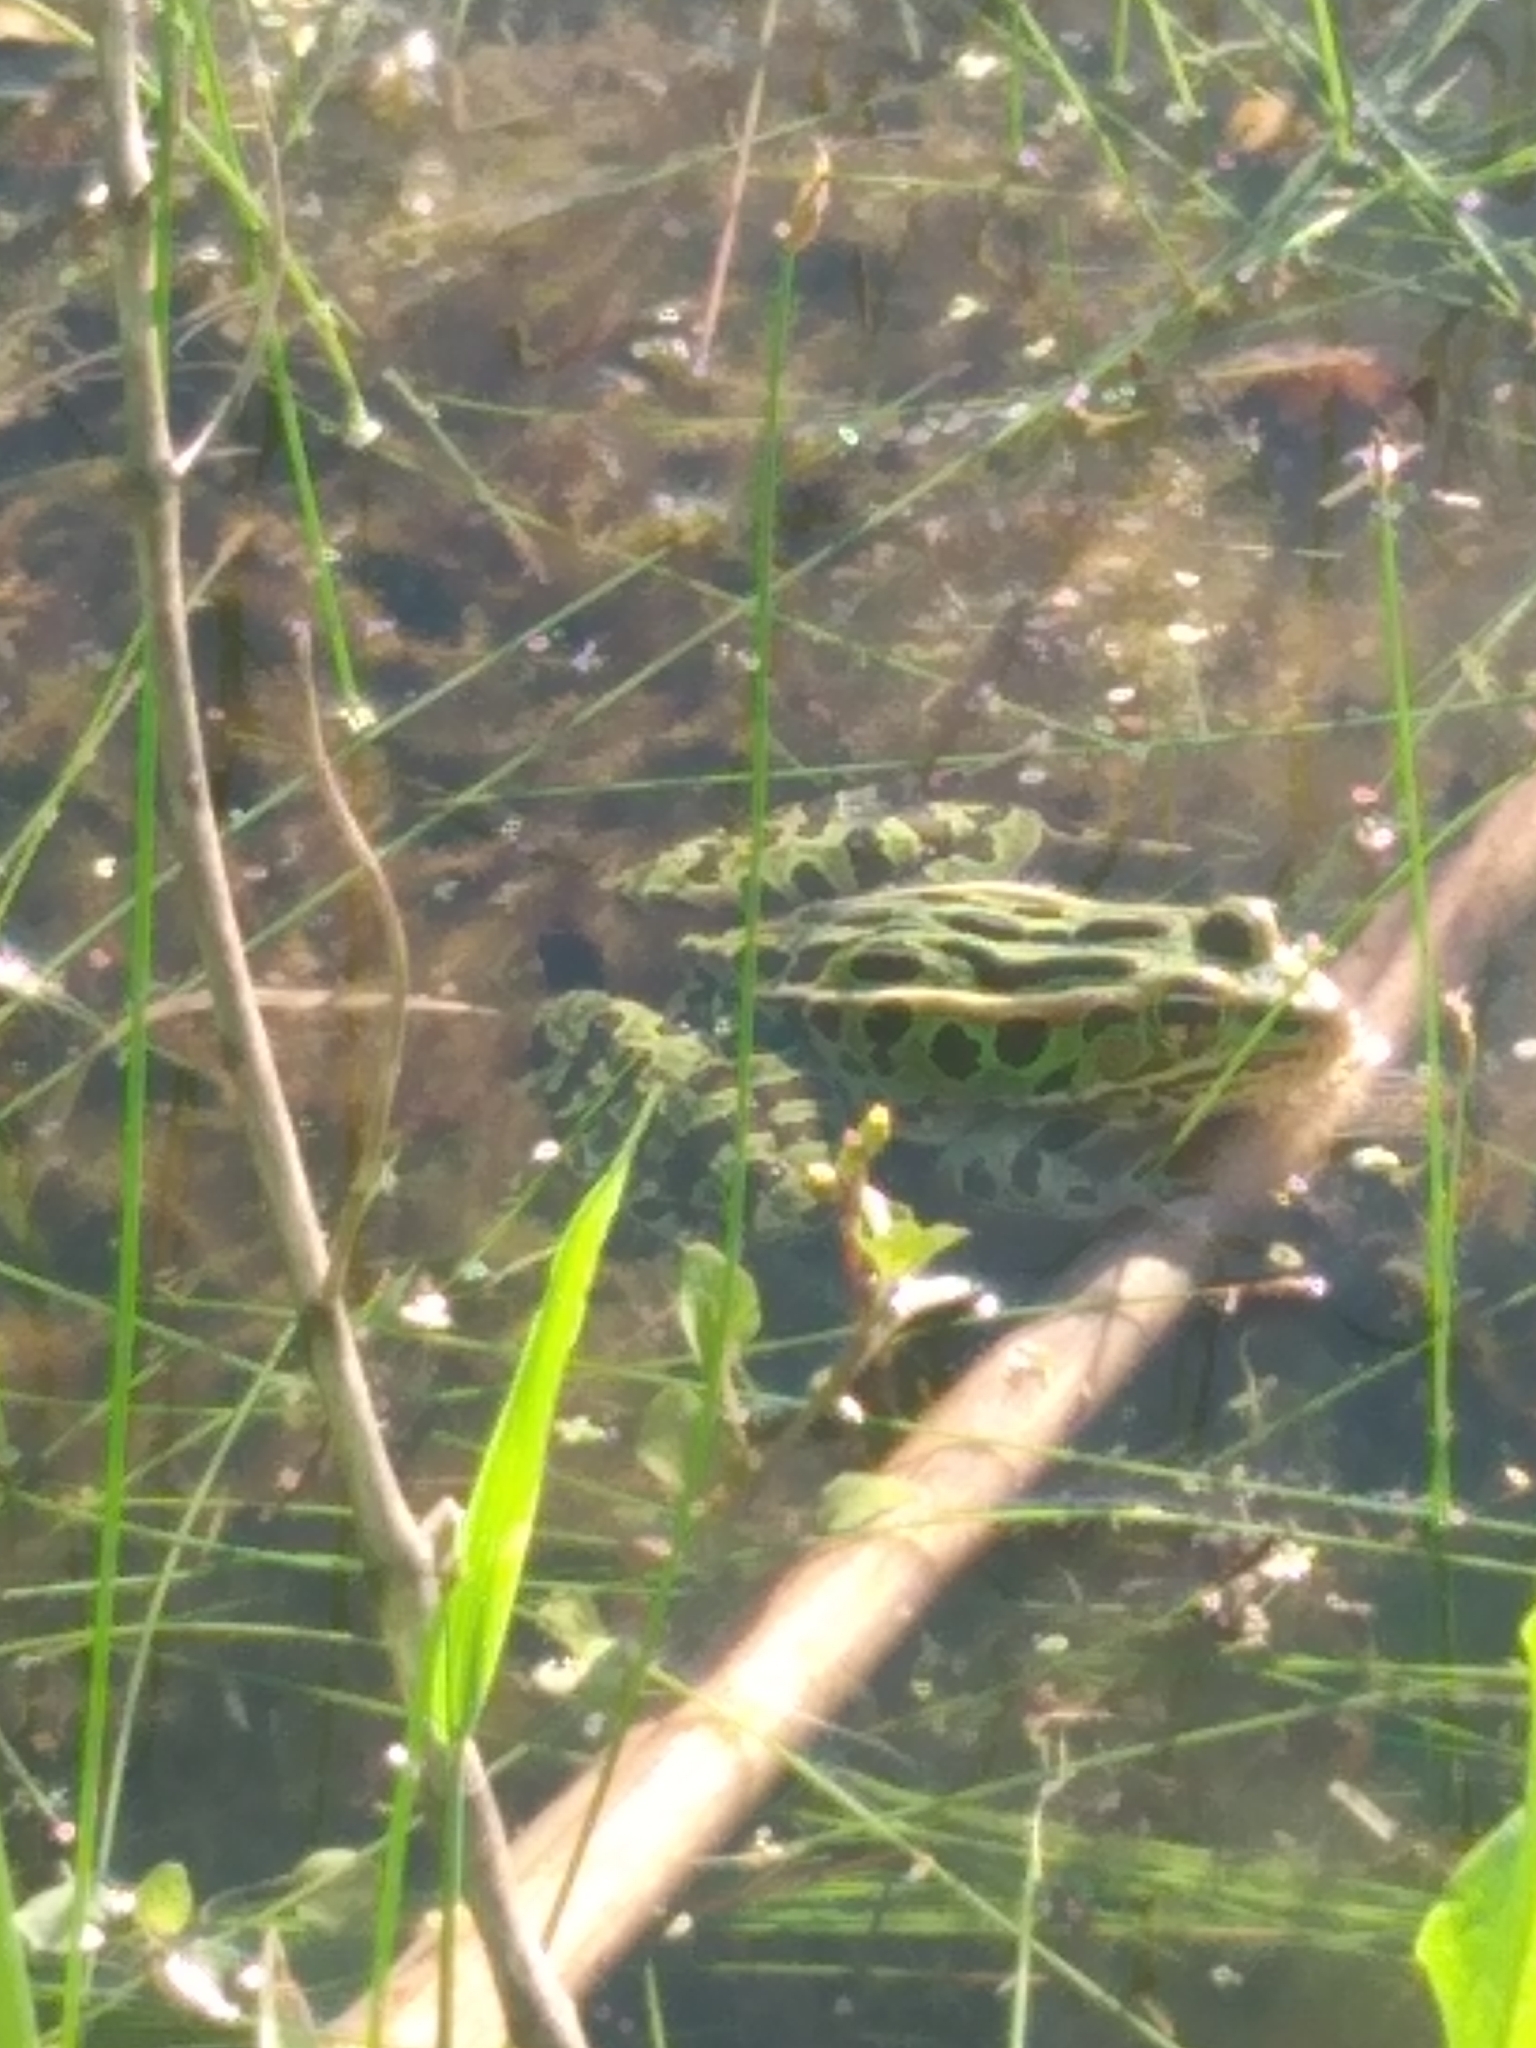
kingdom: Animalia
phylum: Chordata
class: Amphibia
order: Anura
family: Ranidae
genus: Lithobates
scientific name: Lithobates pipiens
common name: Northern leopard frog
